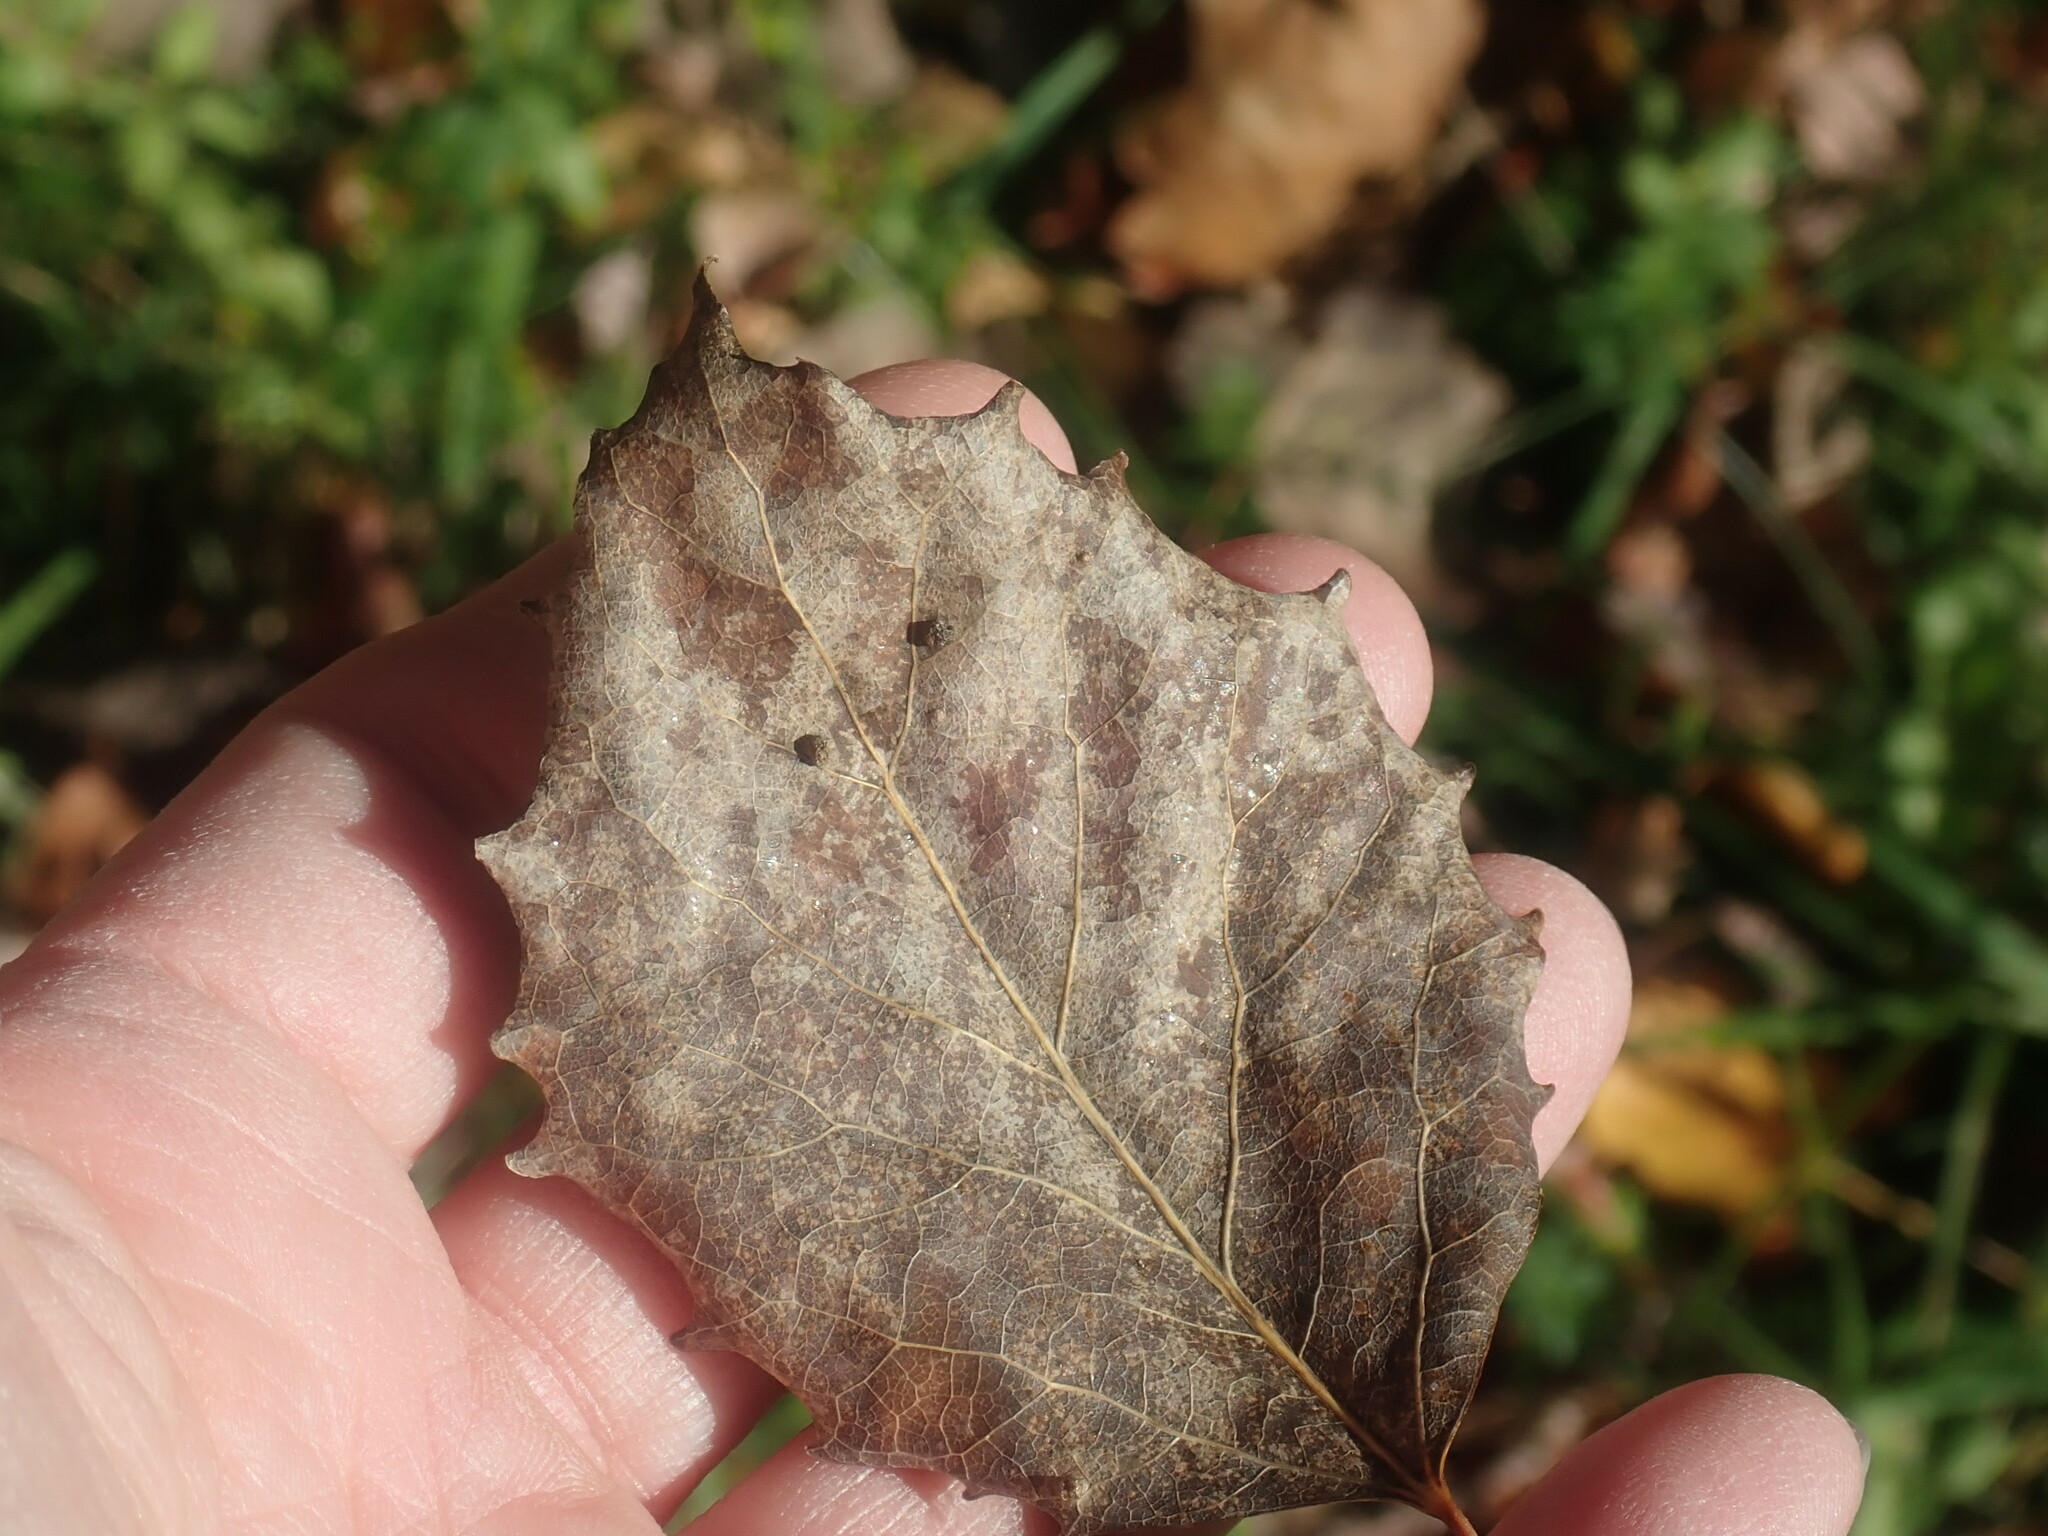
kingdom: Plantae
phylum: Tracheophyta
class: Magnoliopsida
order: Malpighiales
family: Salicaceae
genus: Populus
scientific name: Populus grandidentata
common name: Bigtooth aspen
